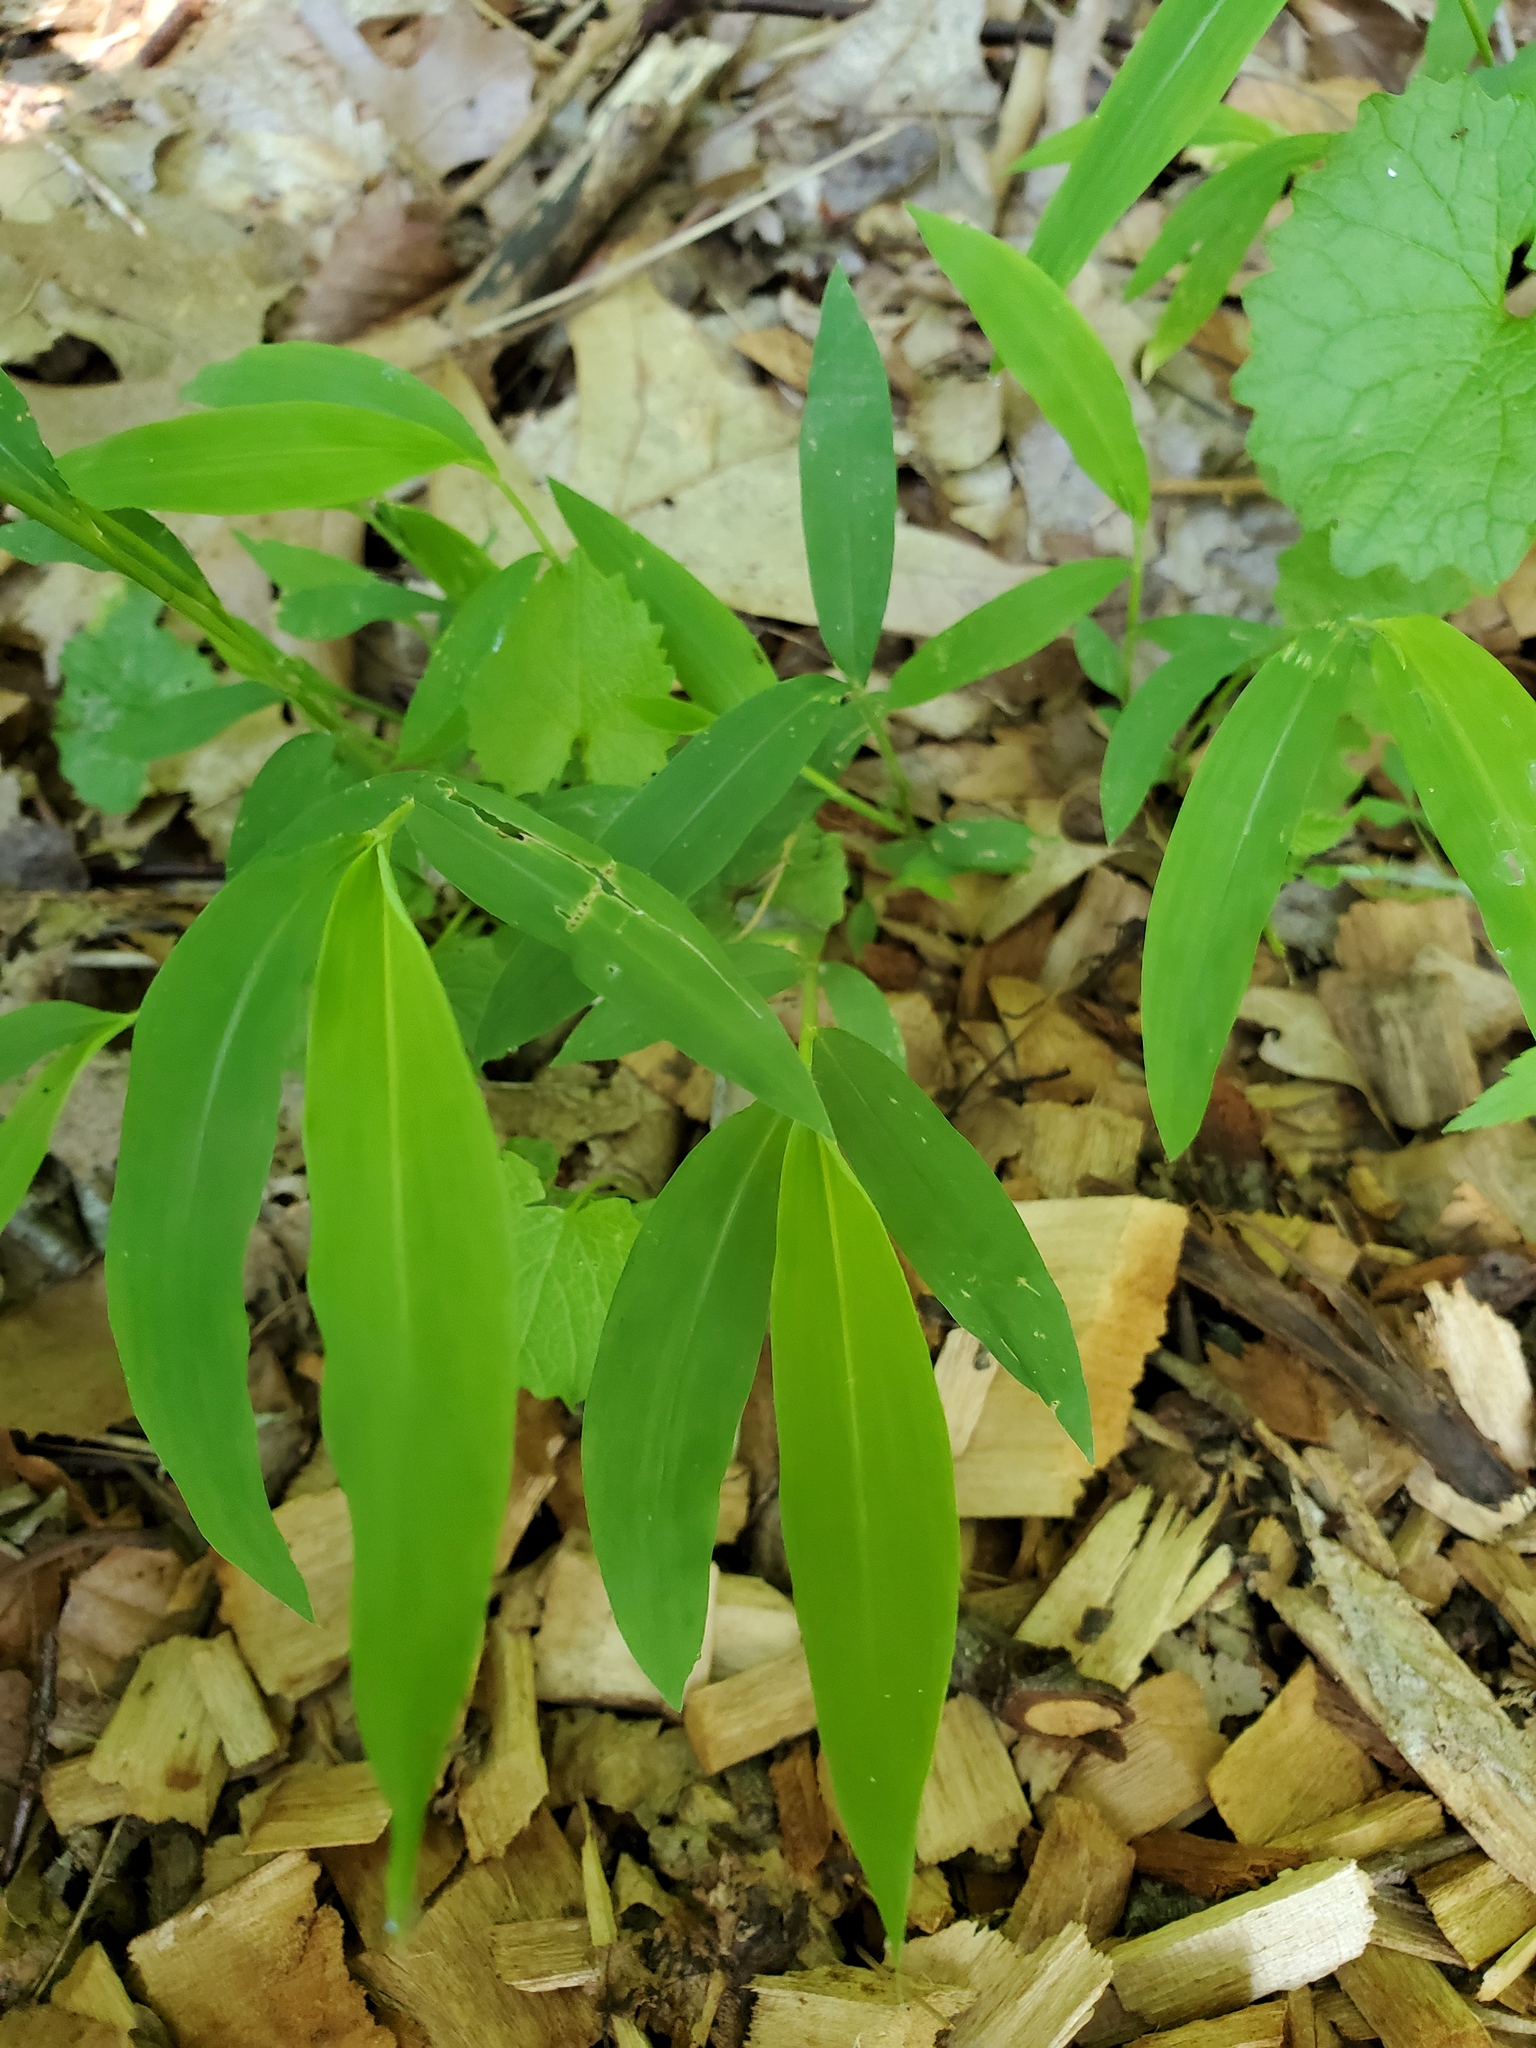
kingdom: Plantae
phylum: Tracheophyta
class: Liliopsida
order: Poales
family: Poaceae
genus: Microstegium
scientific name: Microstegium vimineum
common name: Japanese stiltgrass
